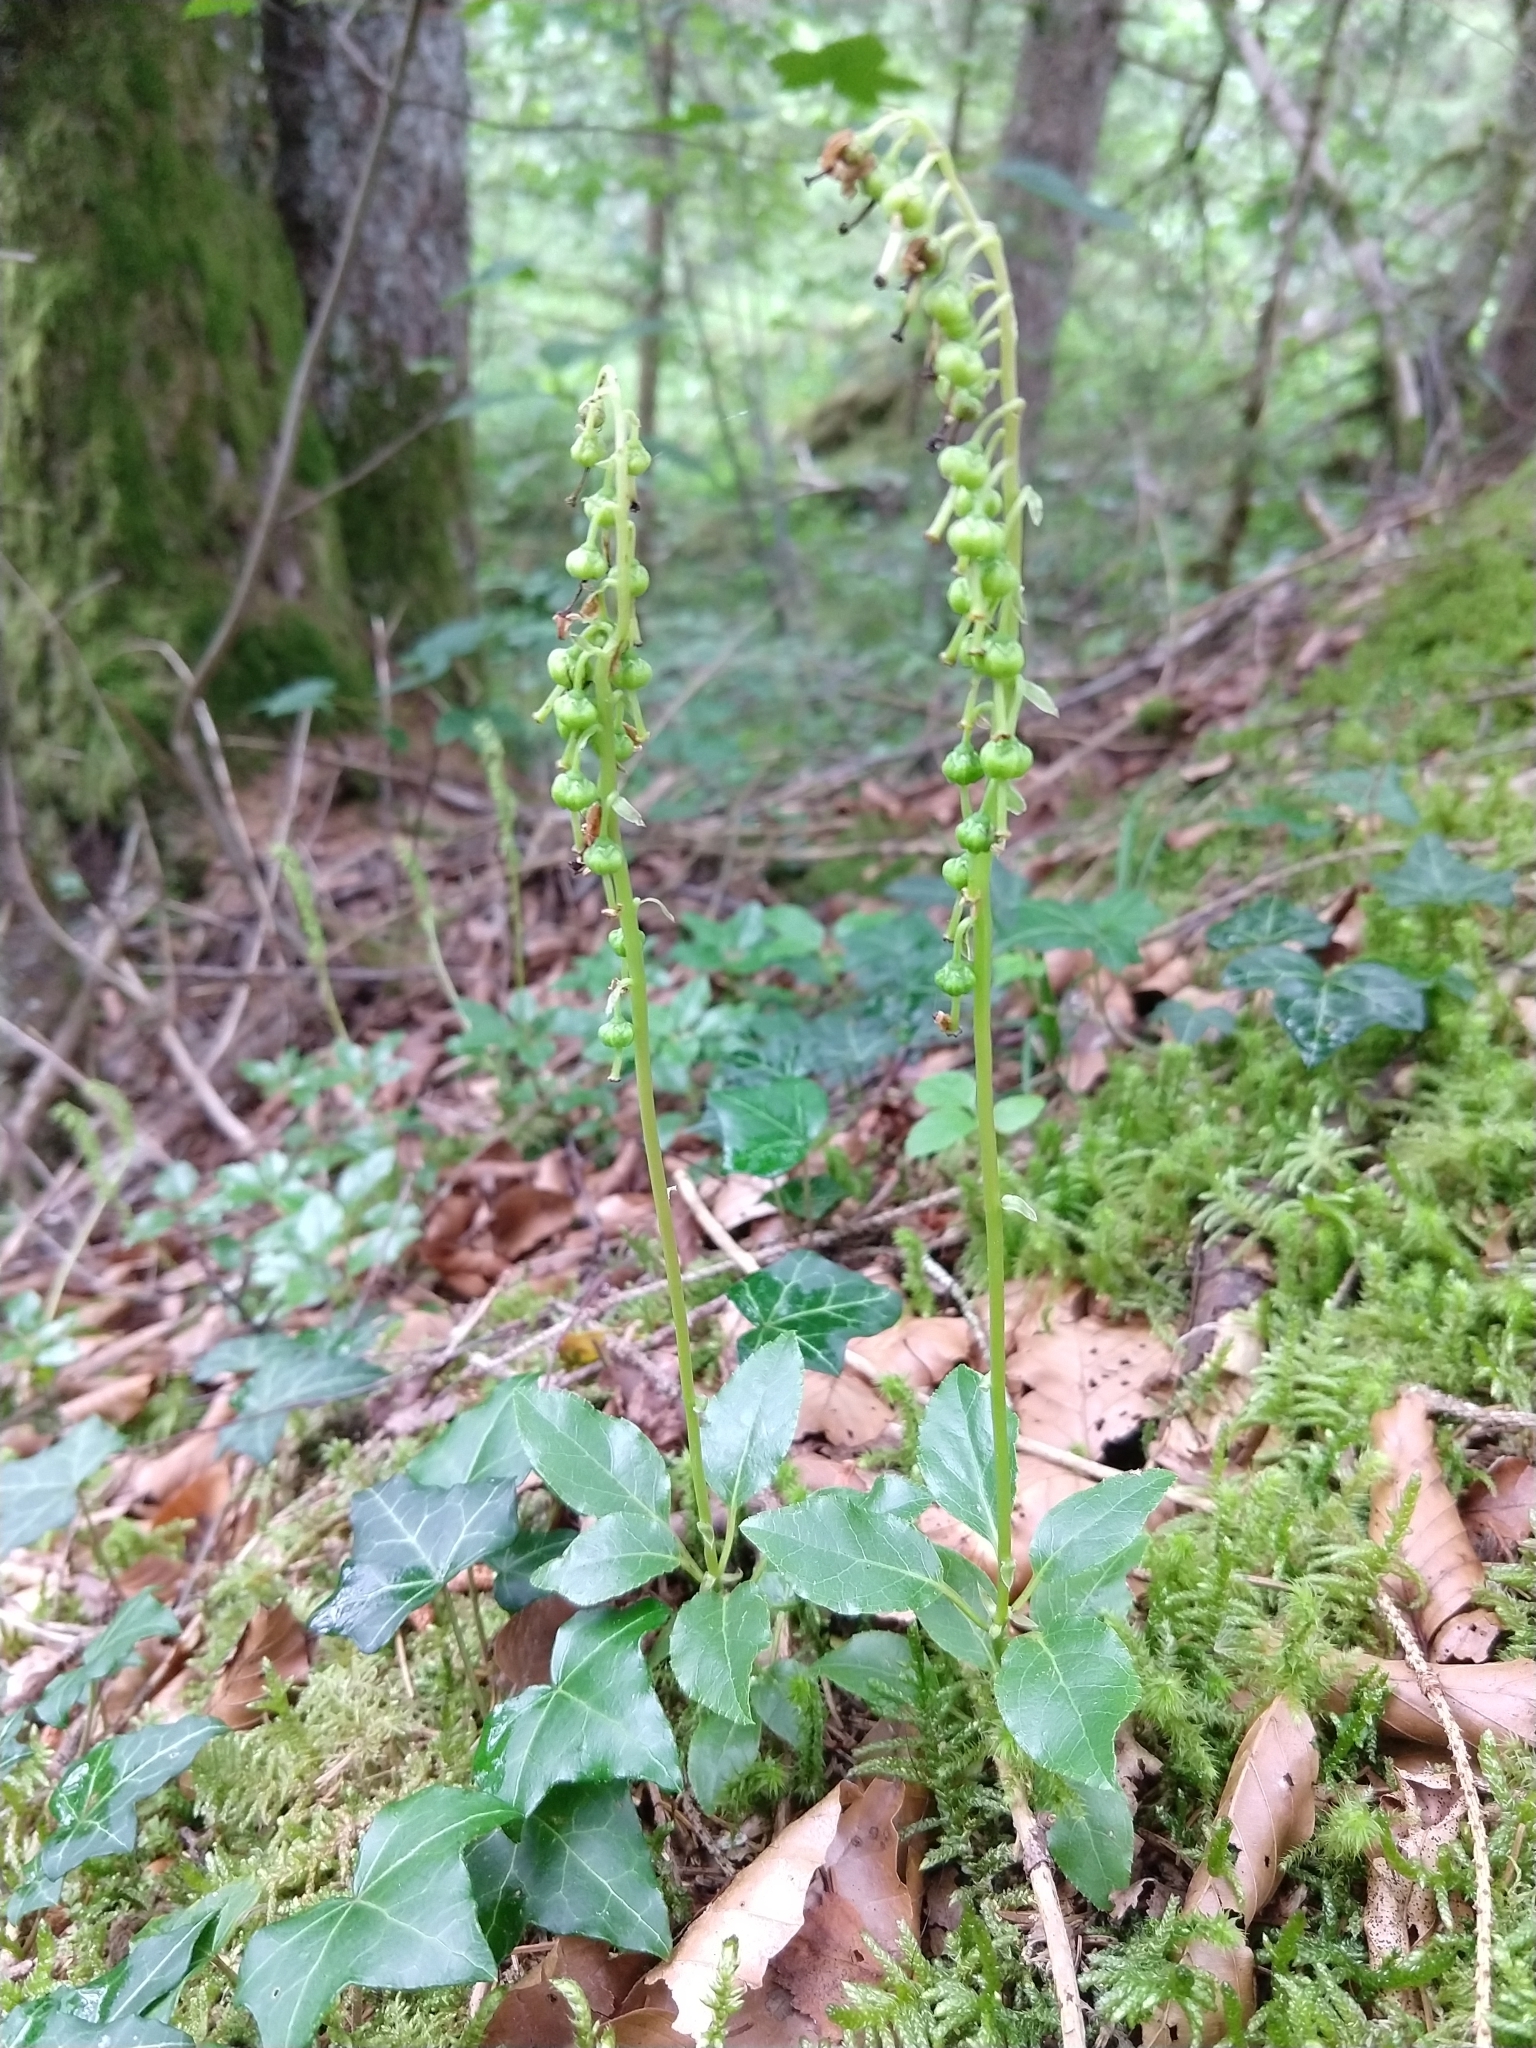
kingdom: Plantae
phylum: Tracheophyta
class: Magnoliopsida
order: Ericales
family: Ericaceae
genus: Orthilia
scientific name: Orthilia secunda
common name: One-sided orthilia
